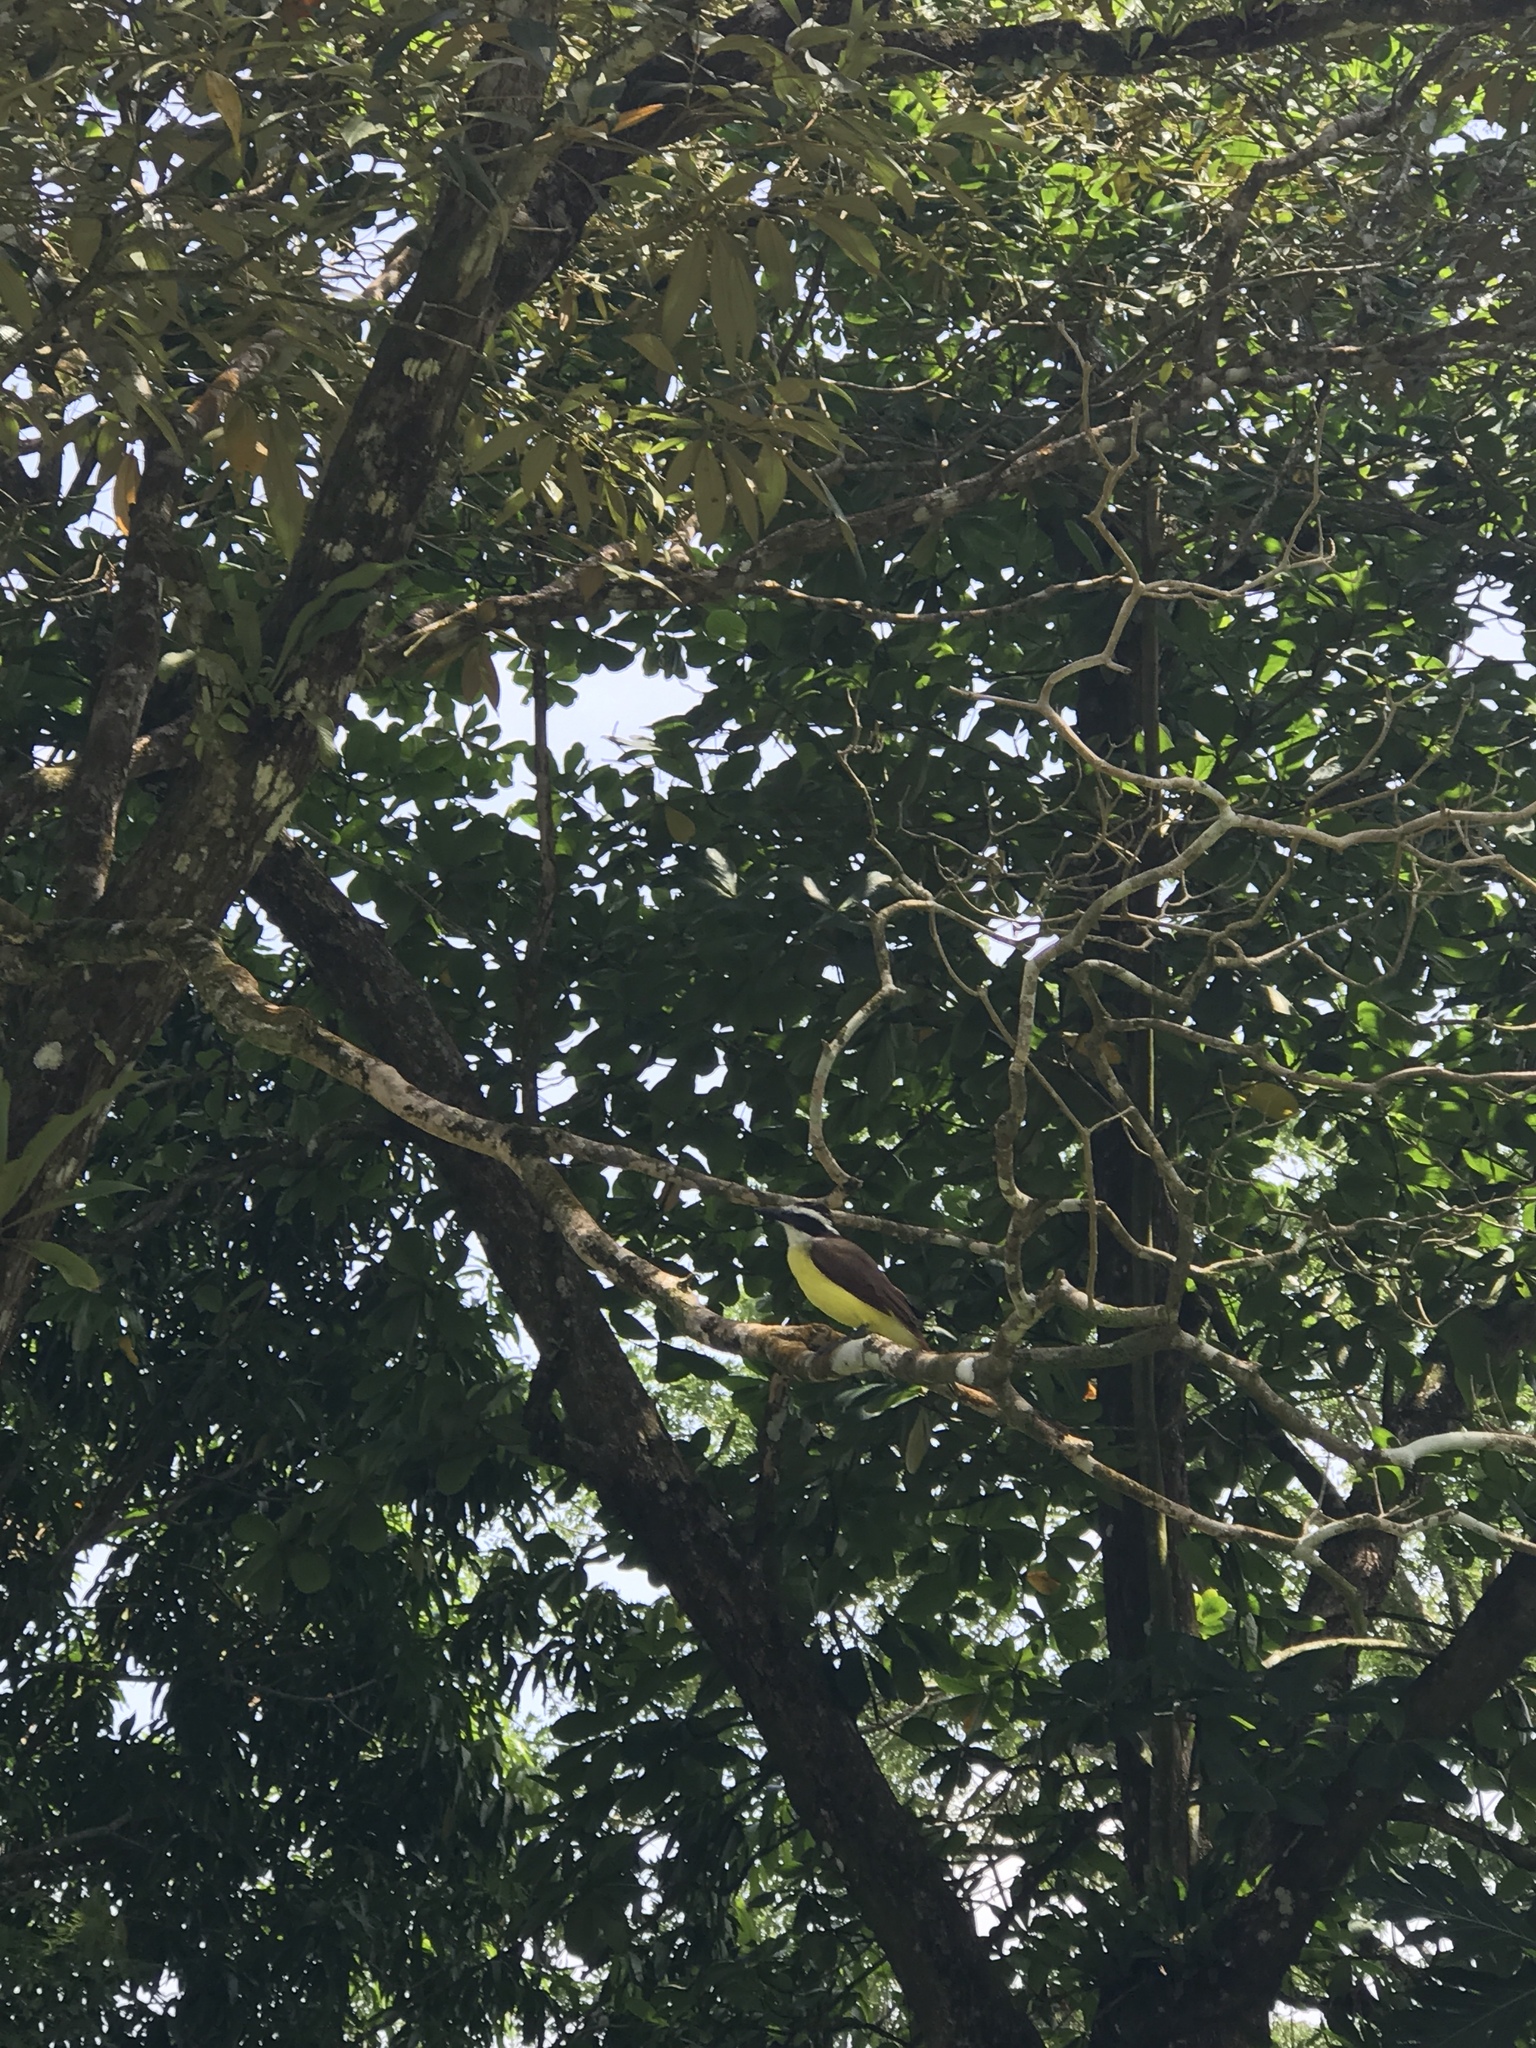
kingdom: Animalia
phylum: Chordata
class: Aves
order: Passeriformes
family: Tyrannidae
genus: Pitangus
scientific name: Pitangus sulphuratus
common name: Great kiskadee
